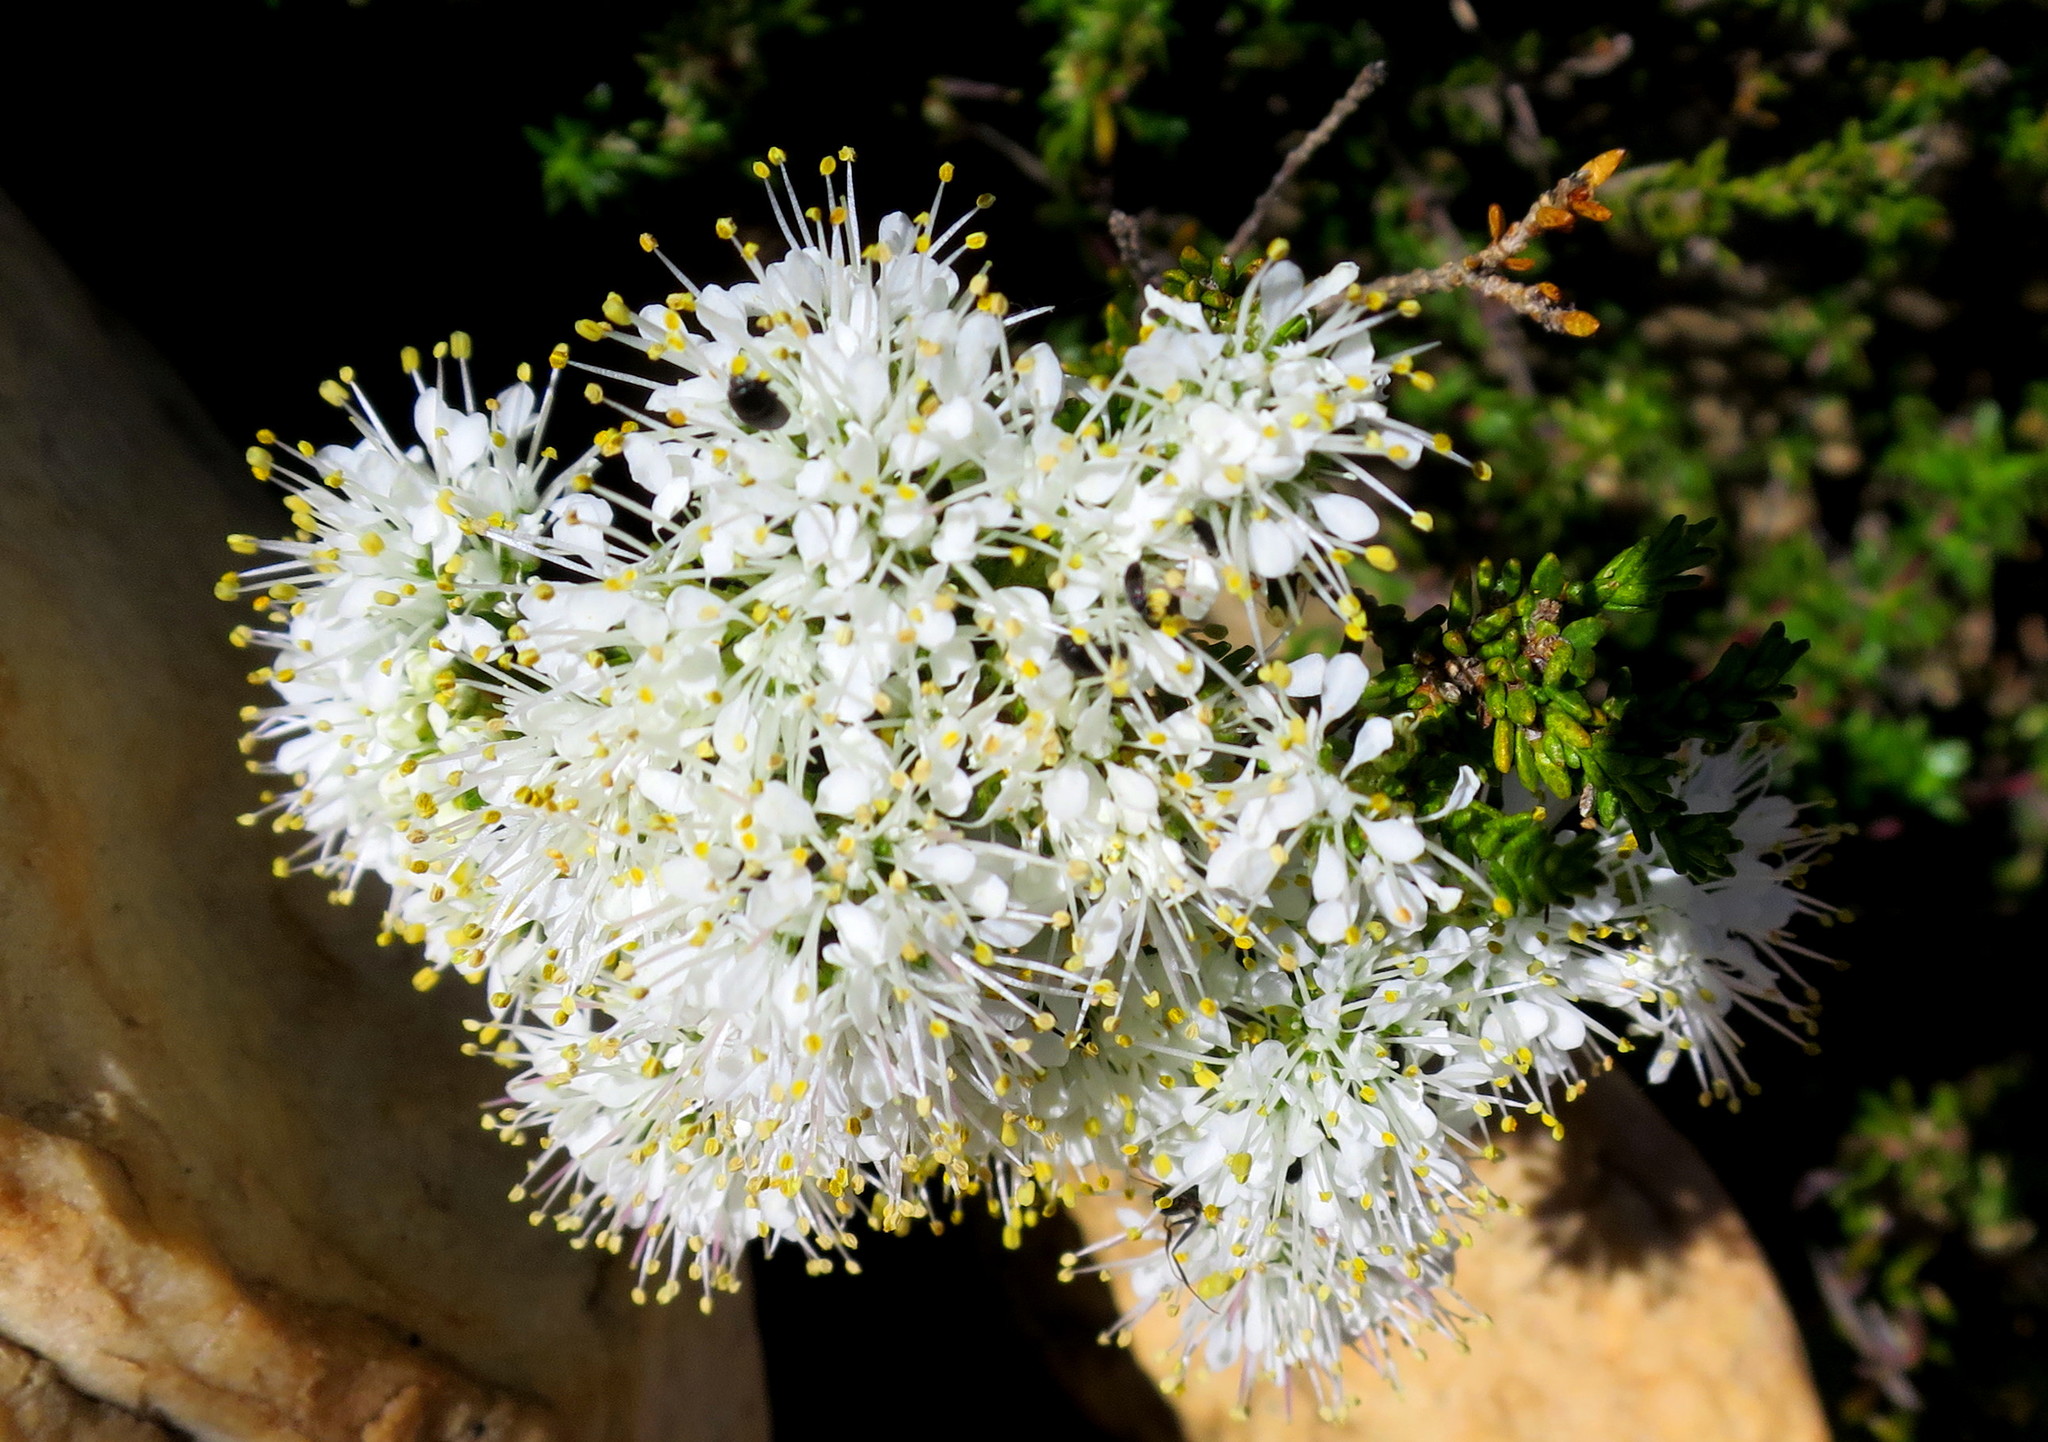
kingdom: Plantae
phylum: Tracheophyta
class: Magnoliopsida
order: Sapindales
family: Rutaceae
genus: Agathosma
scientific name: Agathosma capensis
